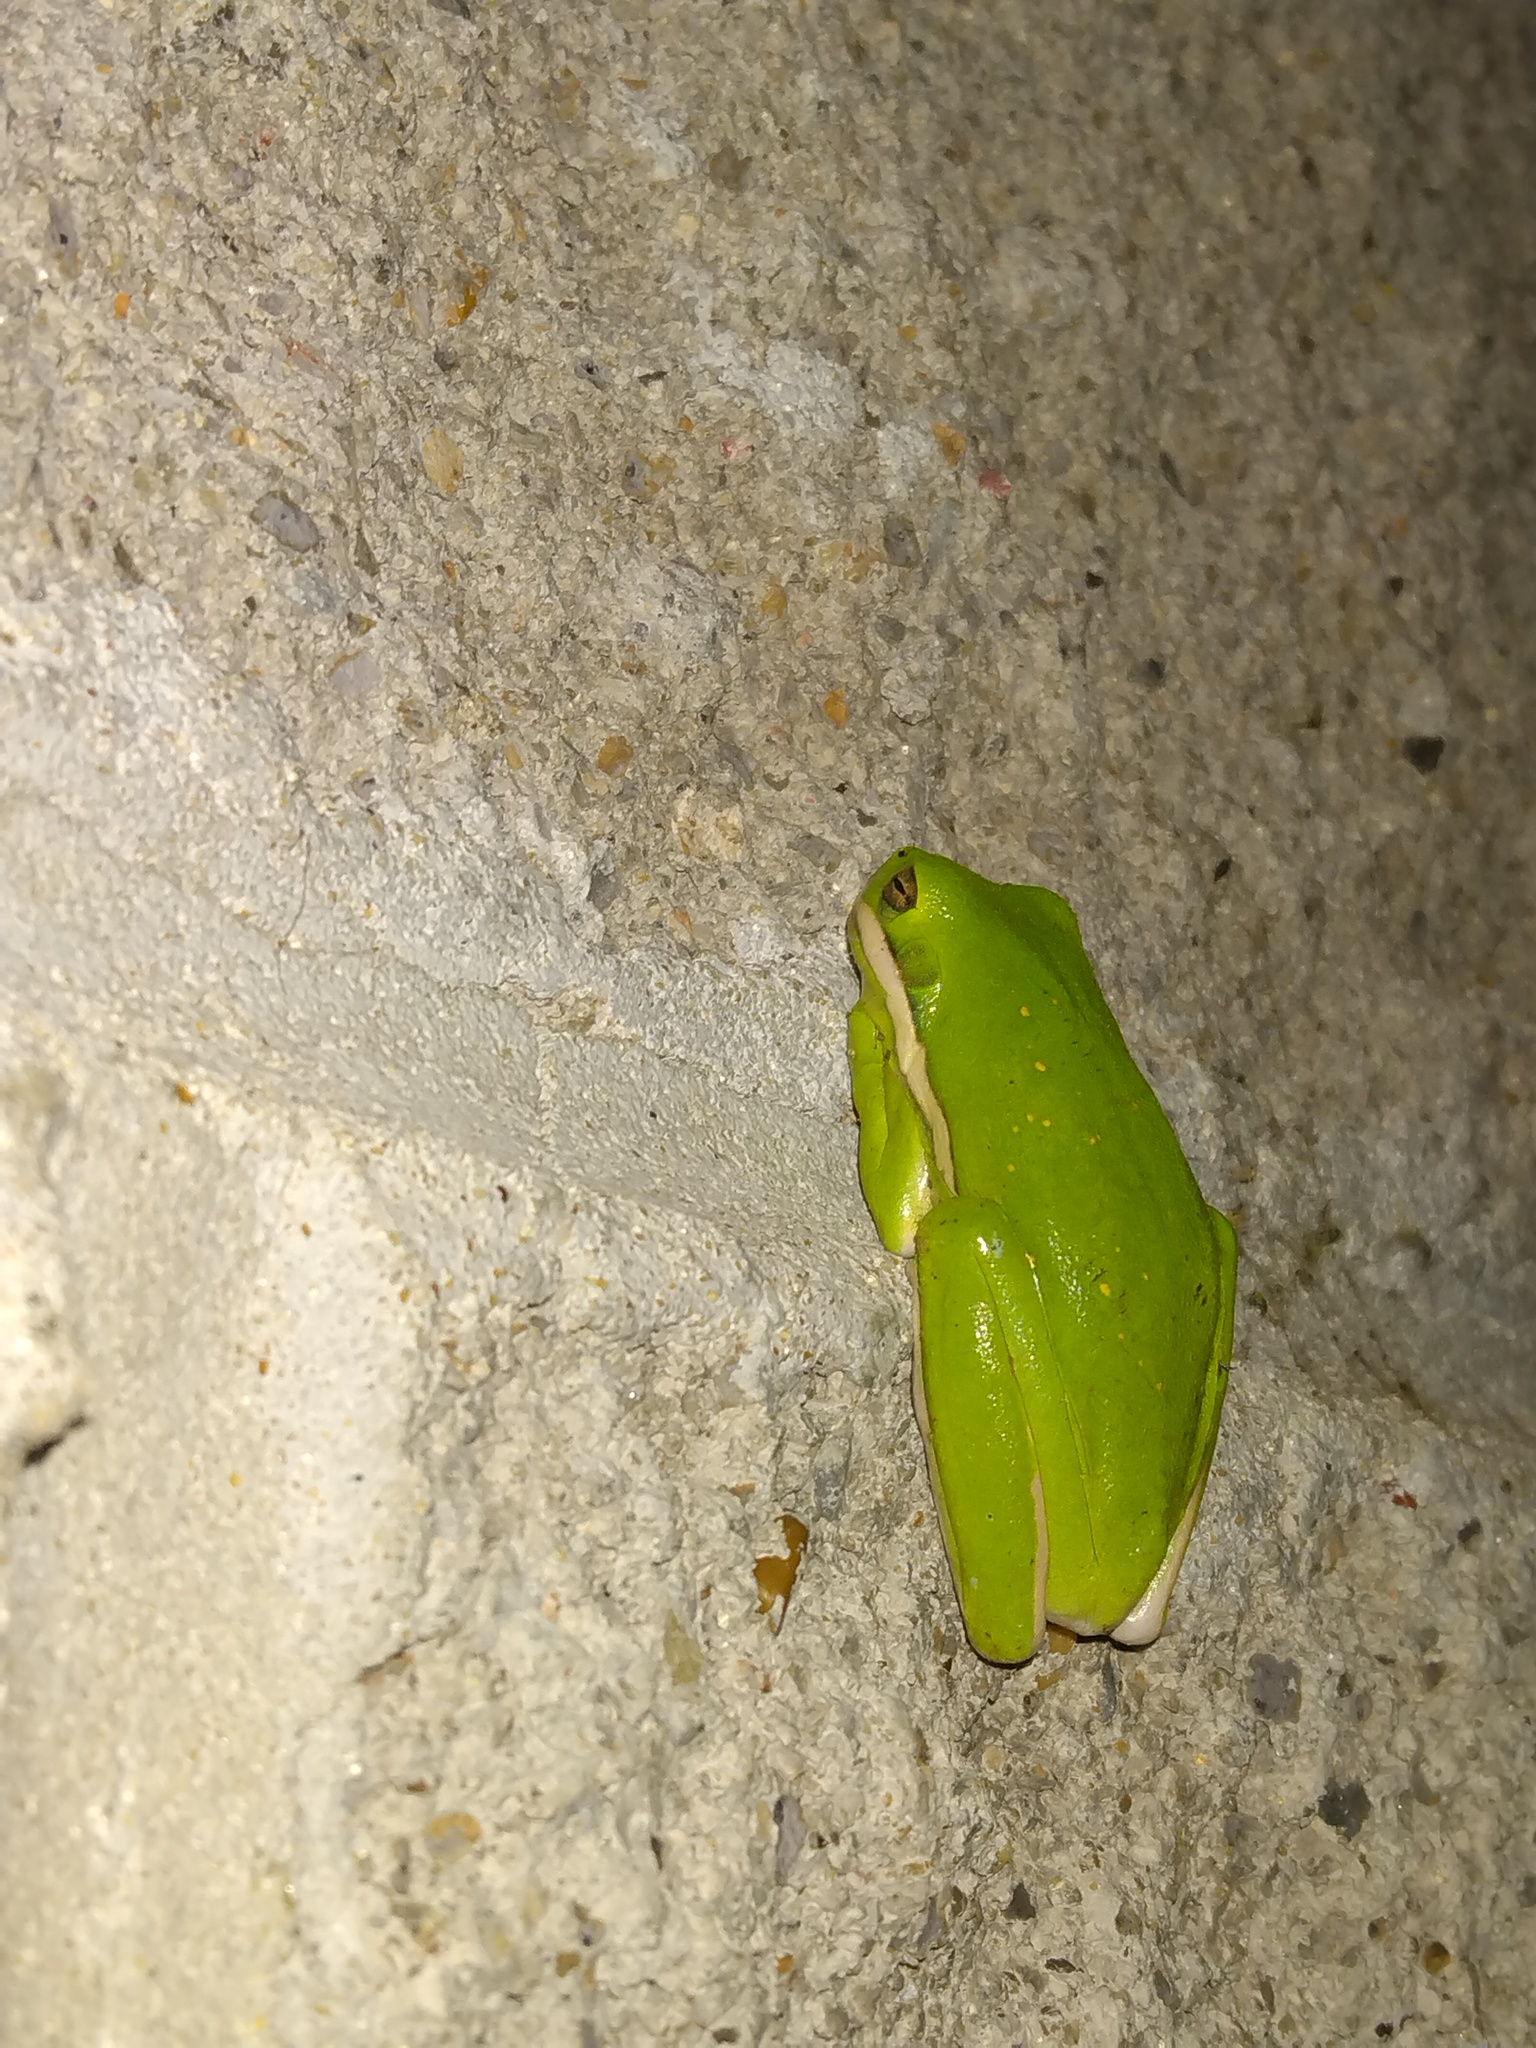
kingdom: Animalia
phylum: Chordata
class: Amphibia
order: Anura
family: Hylidae
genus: Dryophytes
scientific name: Dryophytes cinereus
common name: Green treefrog
